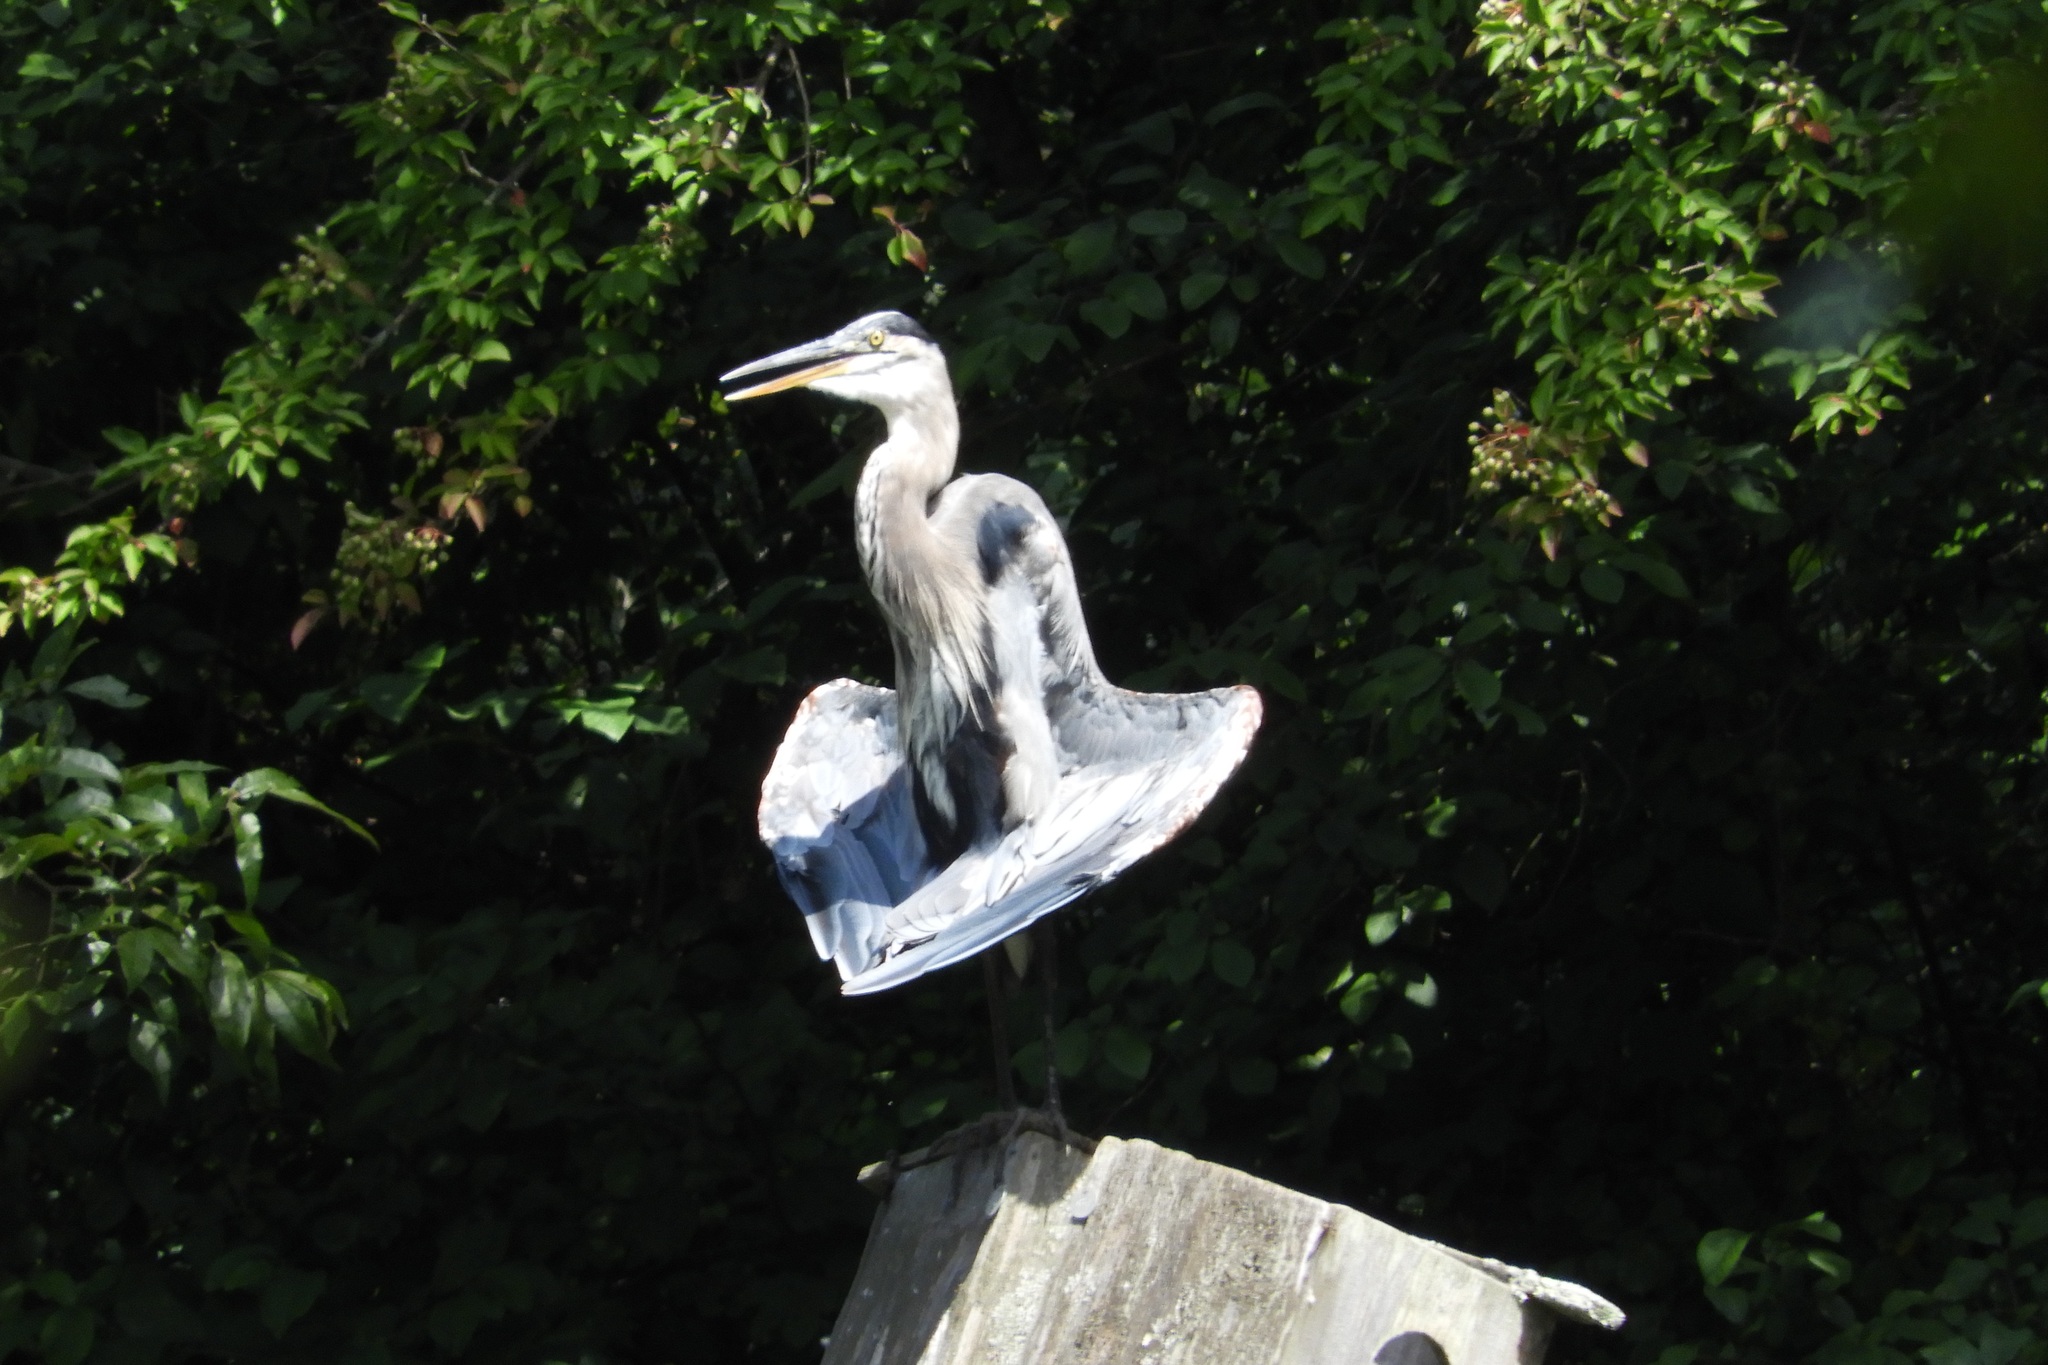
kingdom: Animalia
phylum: Chordata
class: Aves
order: Pelecaniformes
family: Ardeidae
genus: Ardea
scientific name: Ardea herodias
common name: Great blue heron
